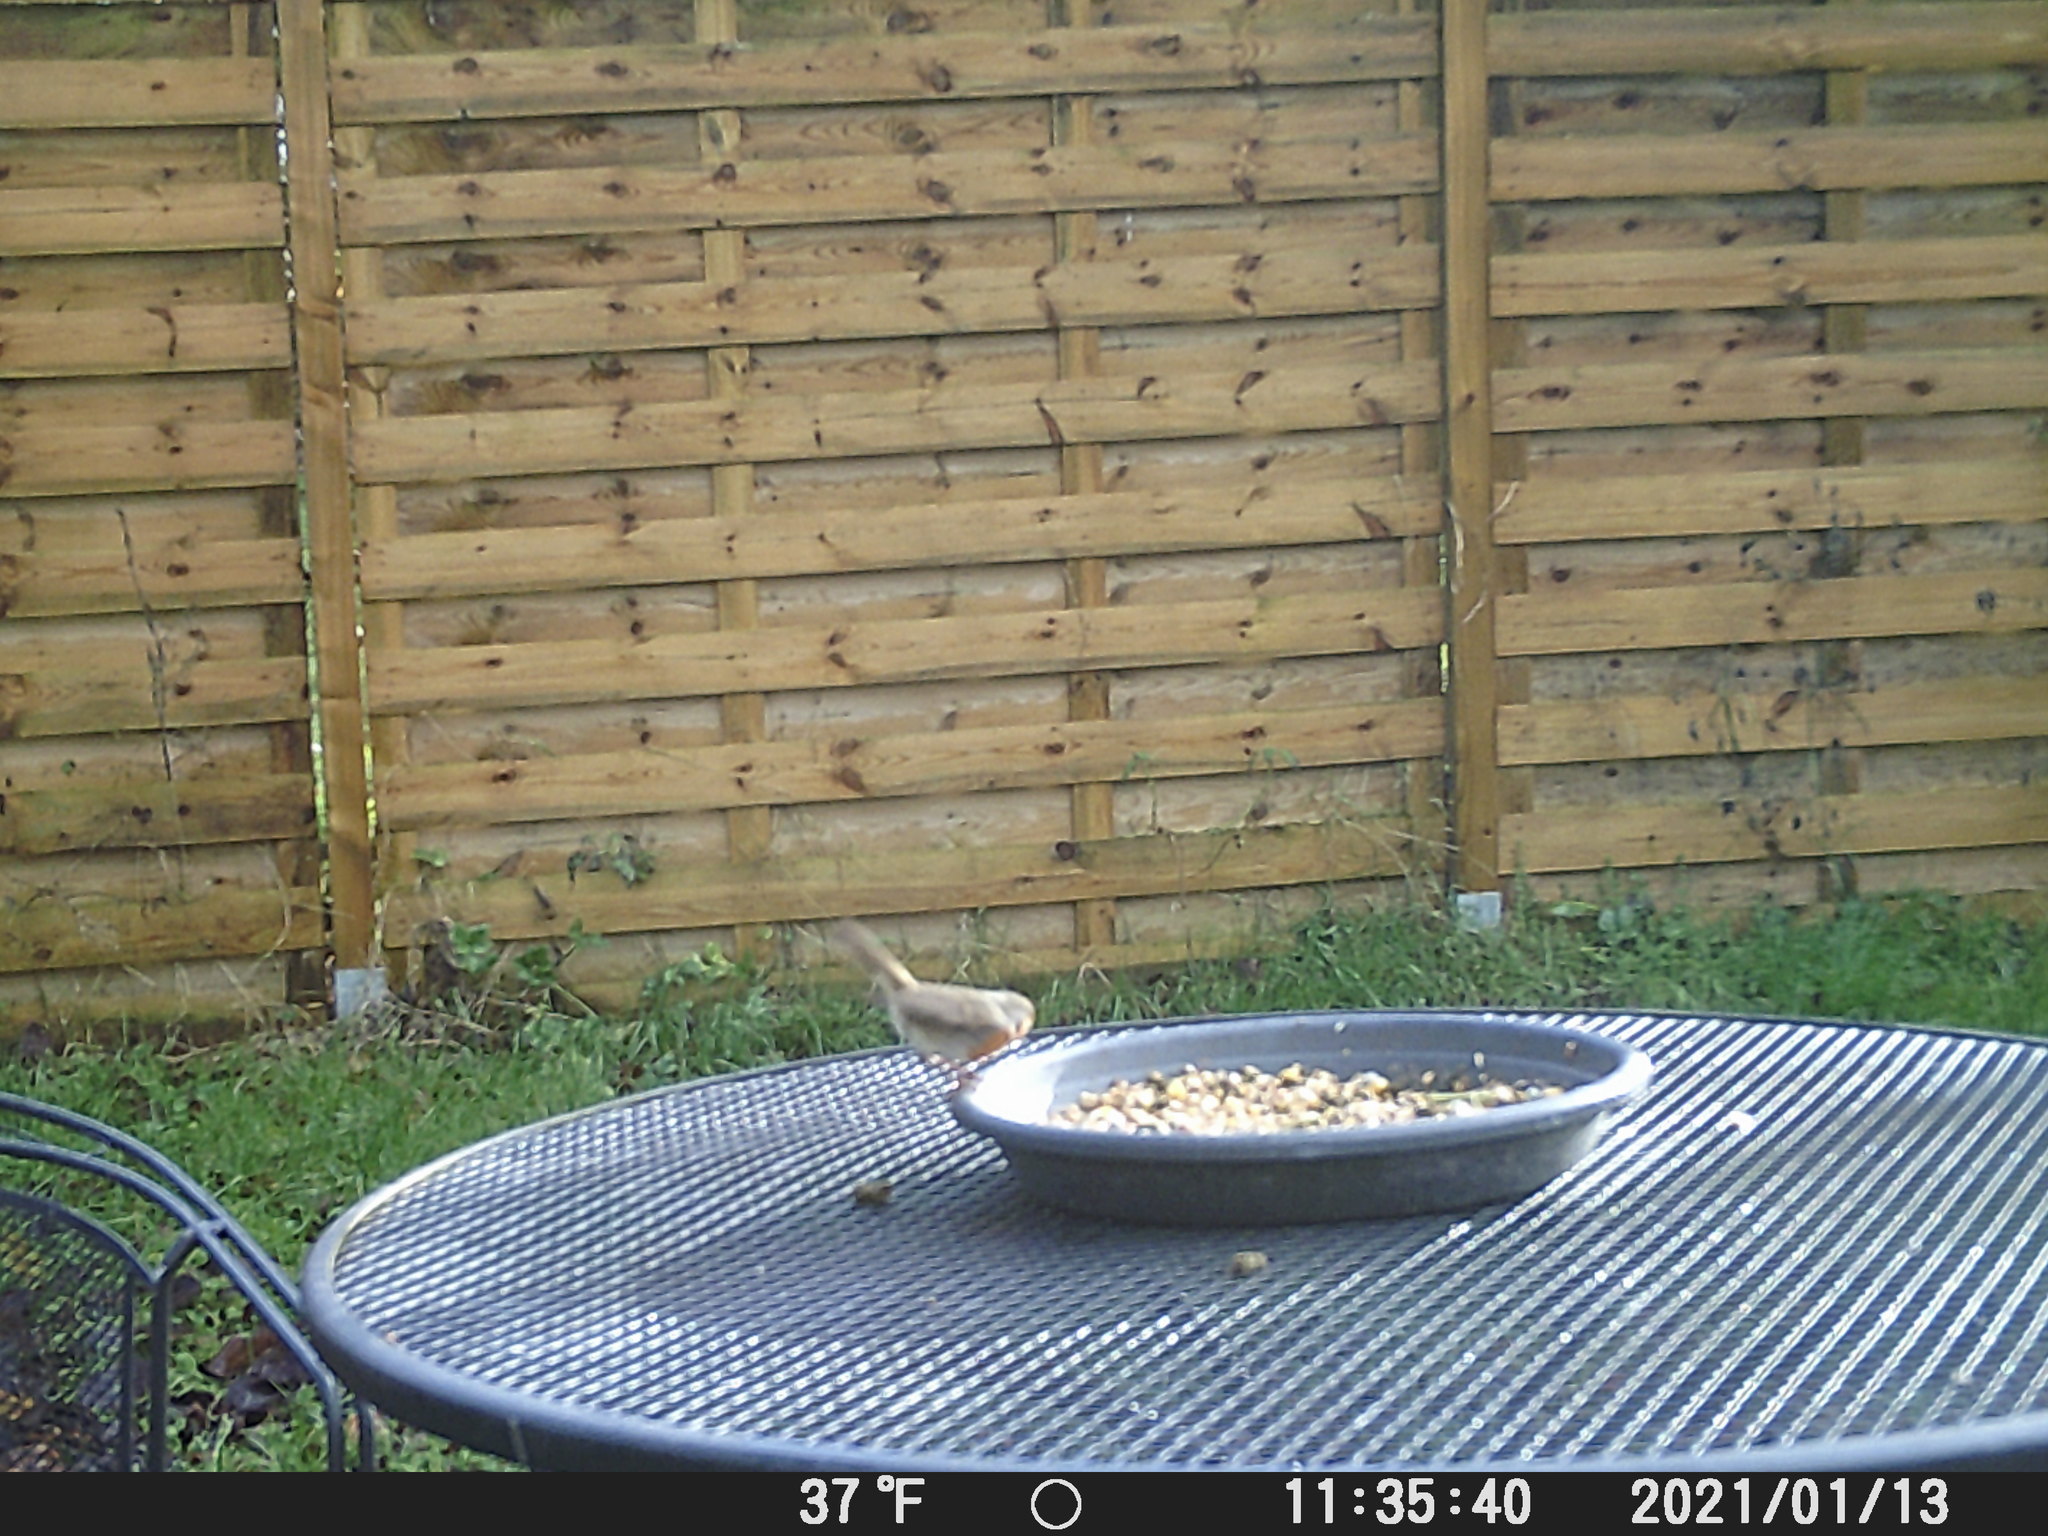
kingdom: Animalia
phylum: Chordata
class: Aves
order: Passeriformes
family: Muscicapidae
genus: Erithacus
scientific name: Erithacus rubecula
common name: European robin
